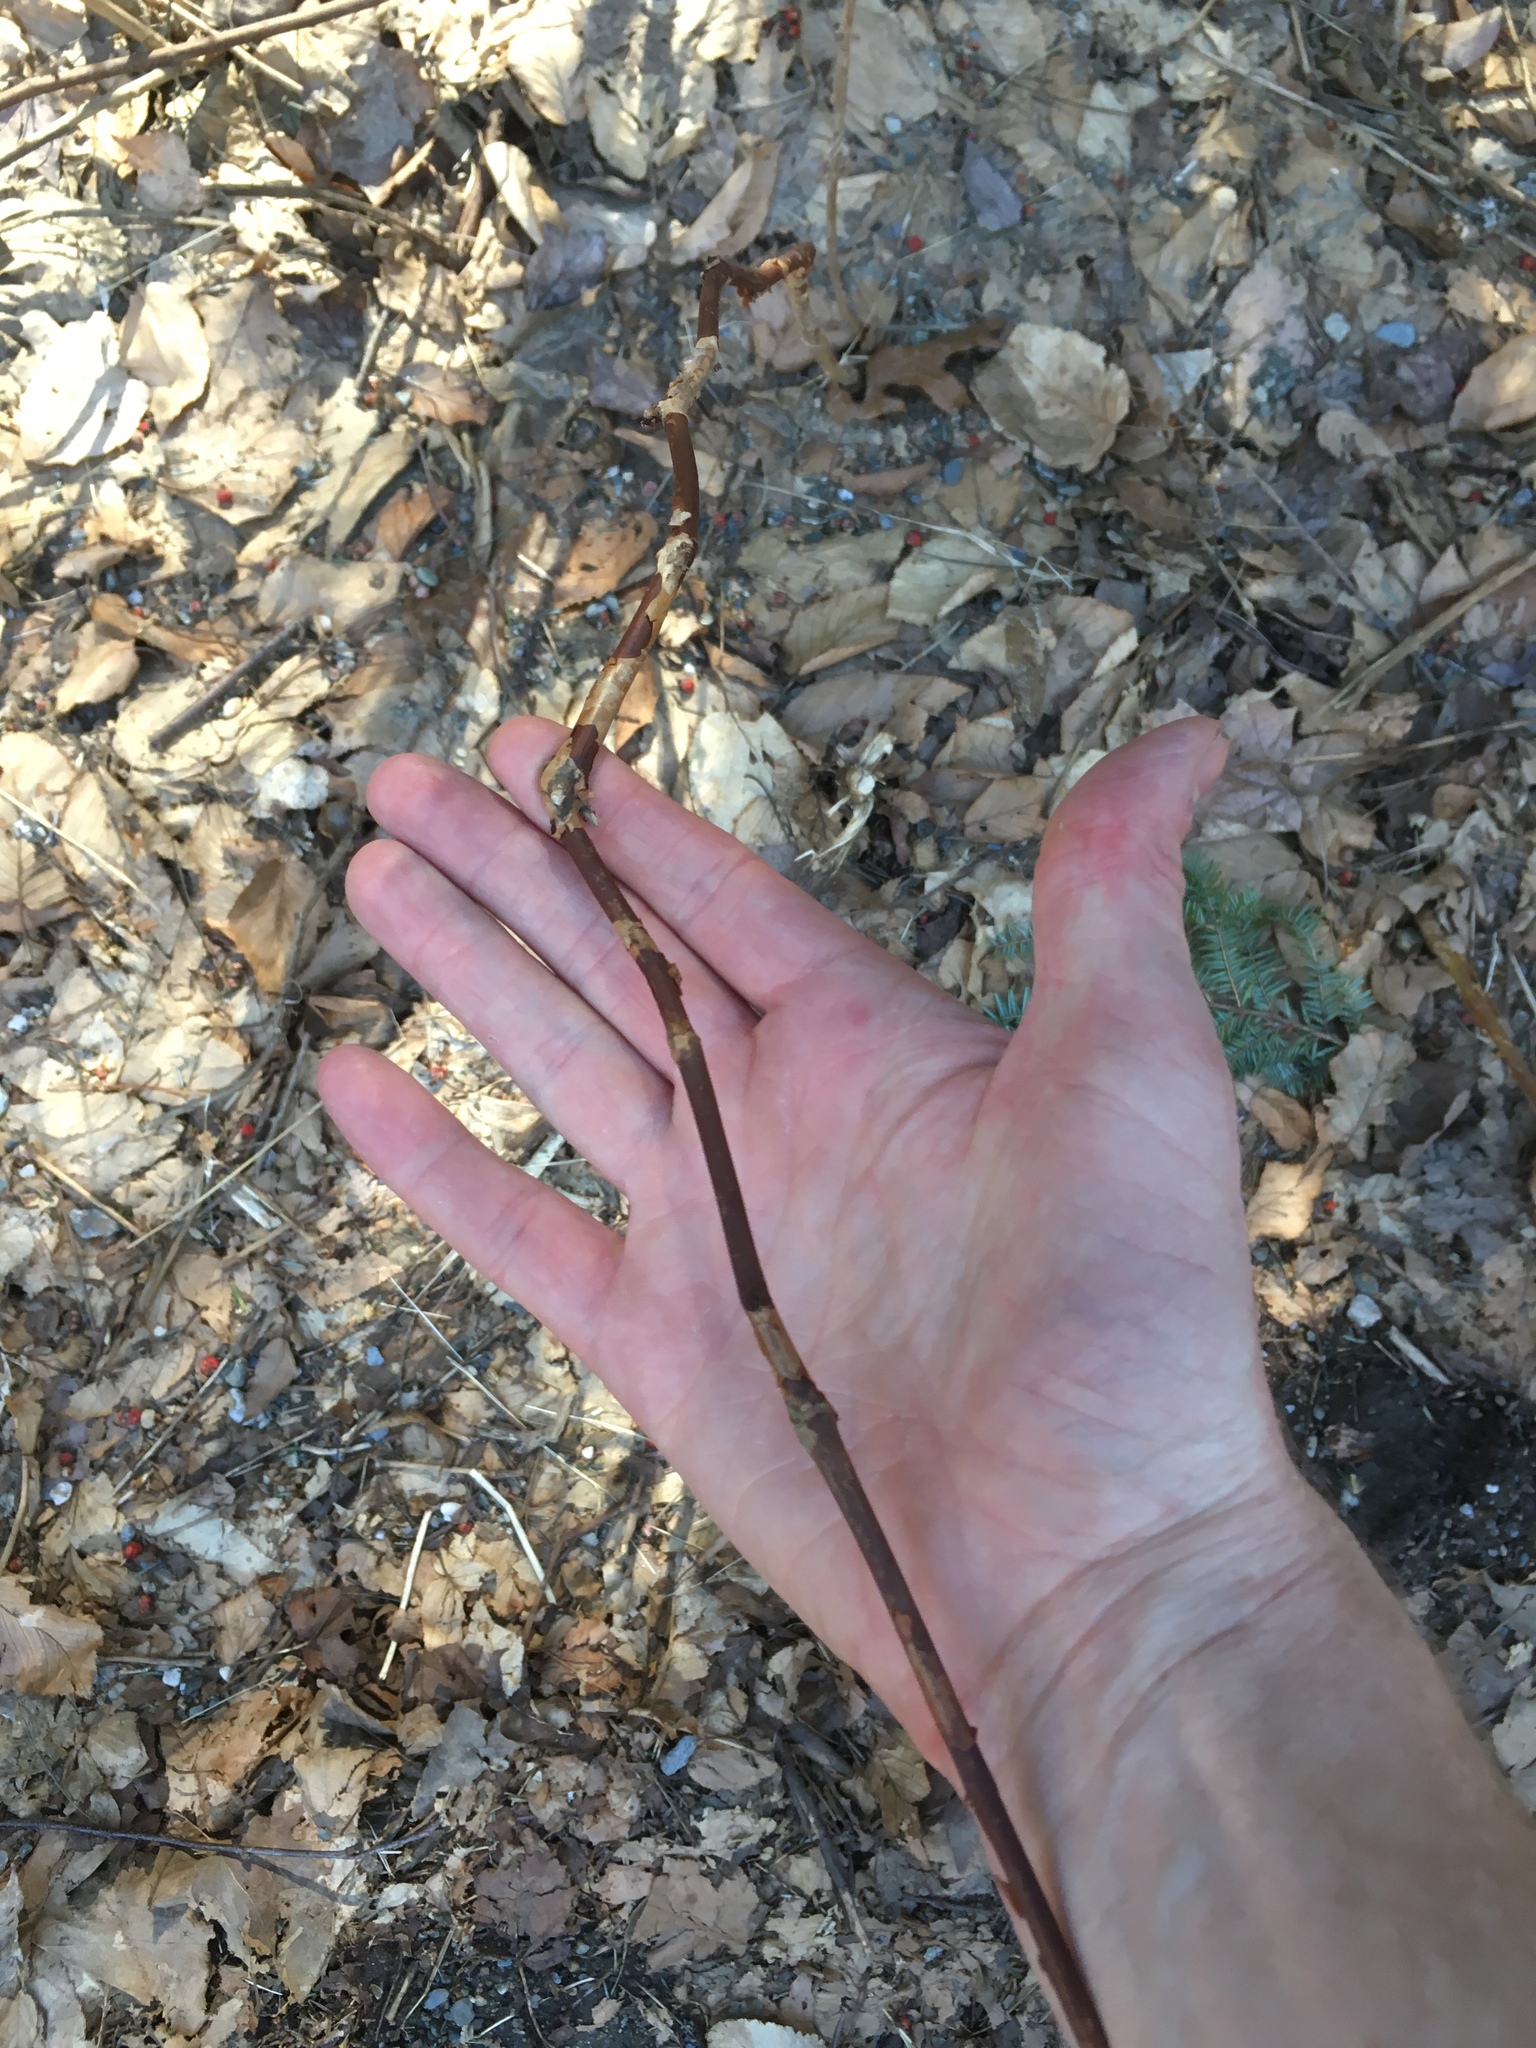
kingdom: Plantae
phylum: Tracheophyta
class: Magnoliopsida
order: Rosales
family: Rosaceae
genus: Rubus
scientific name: Rubus odoratus
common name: Purple-flowered raspberry
